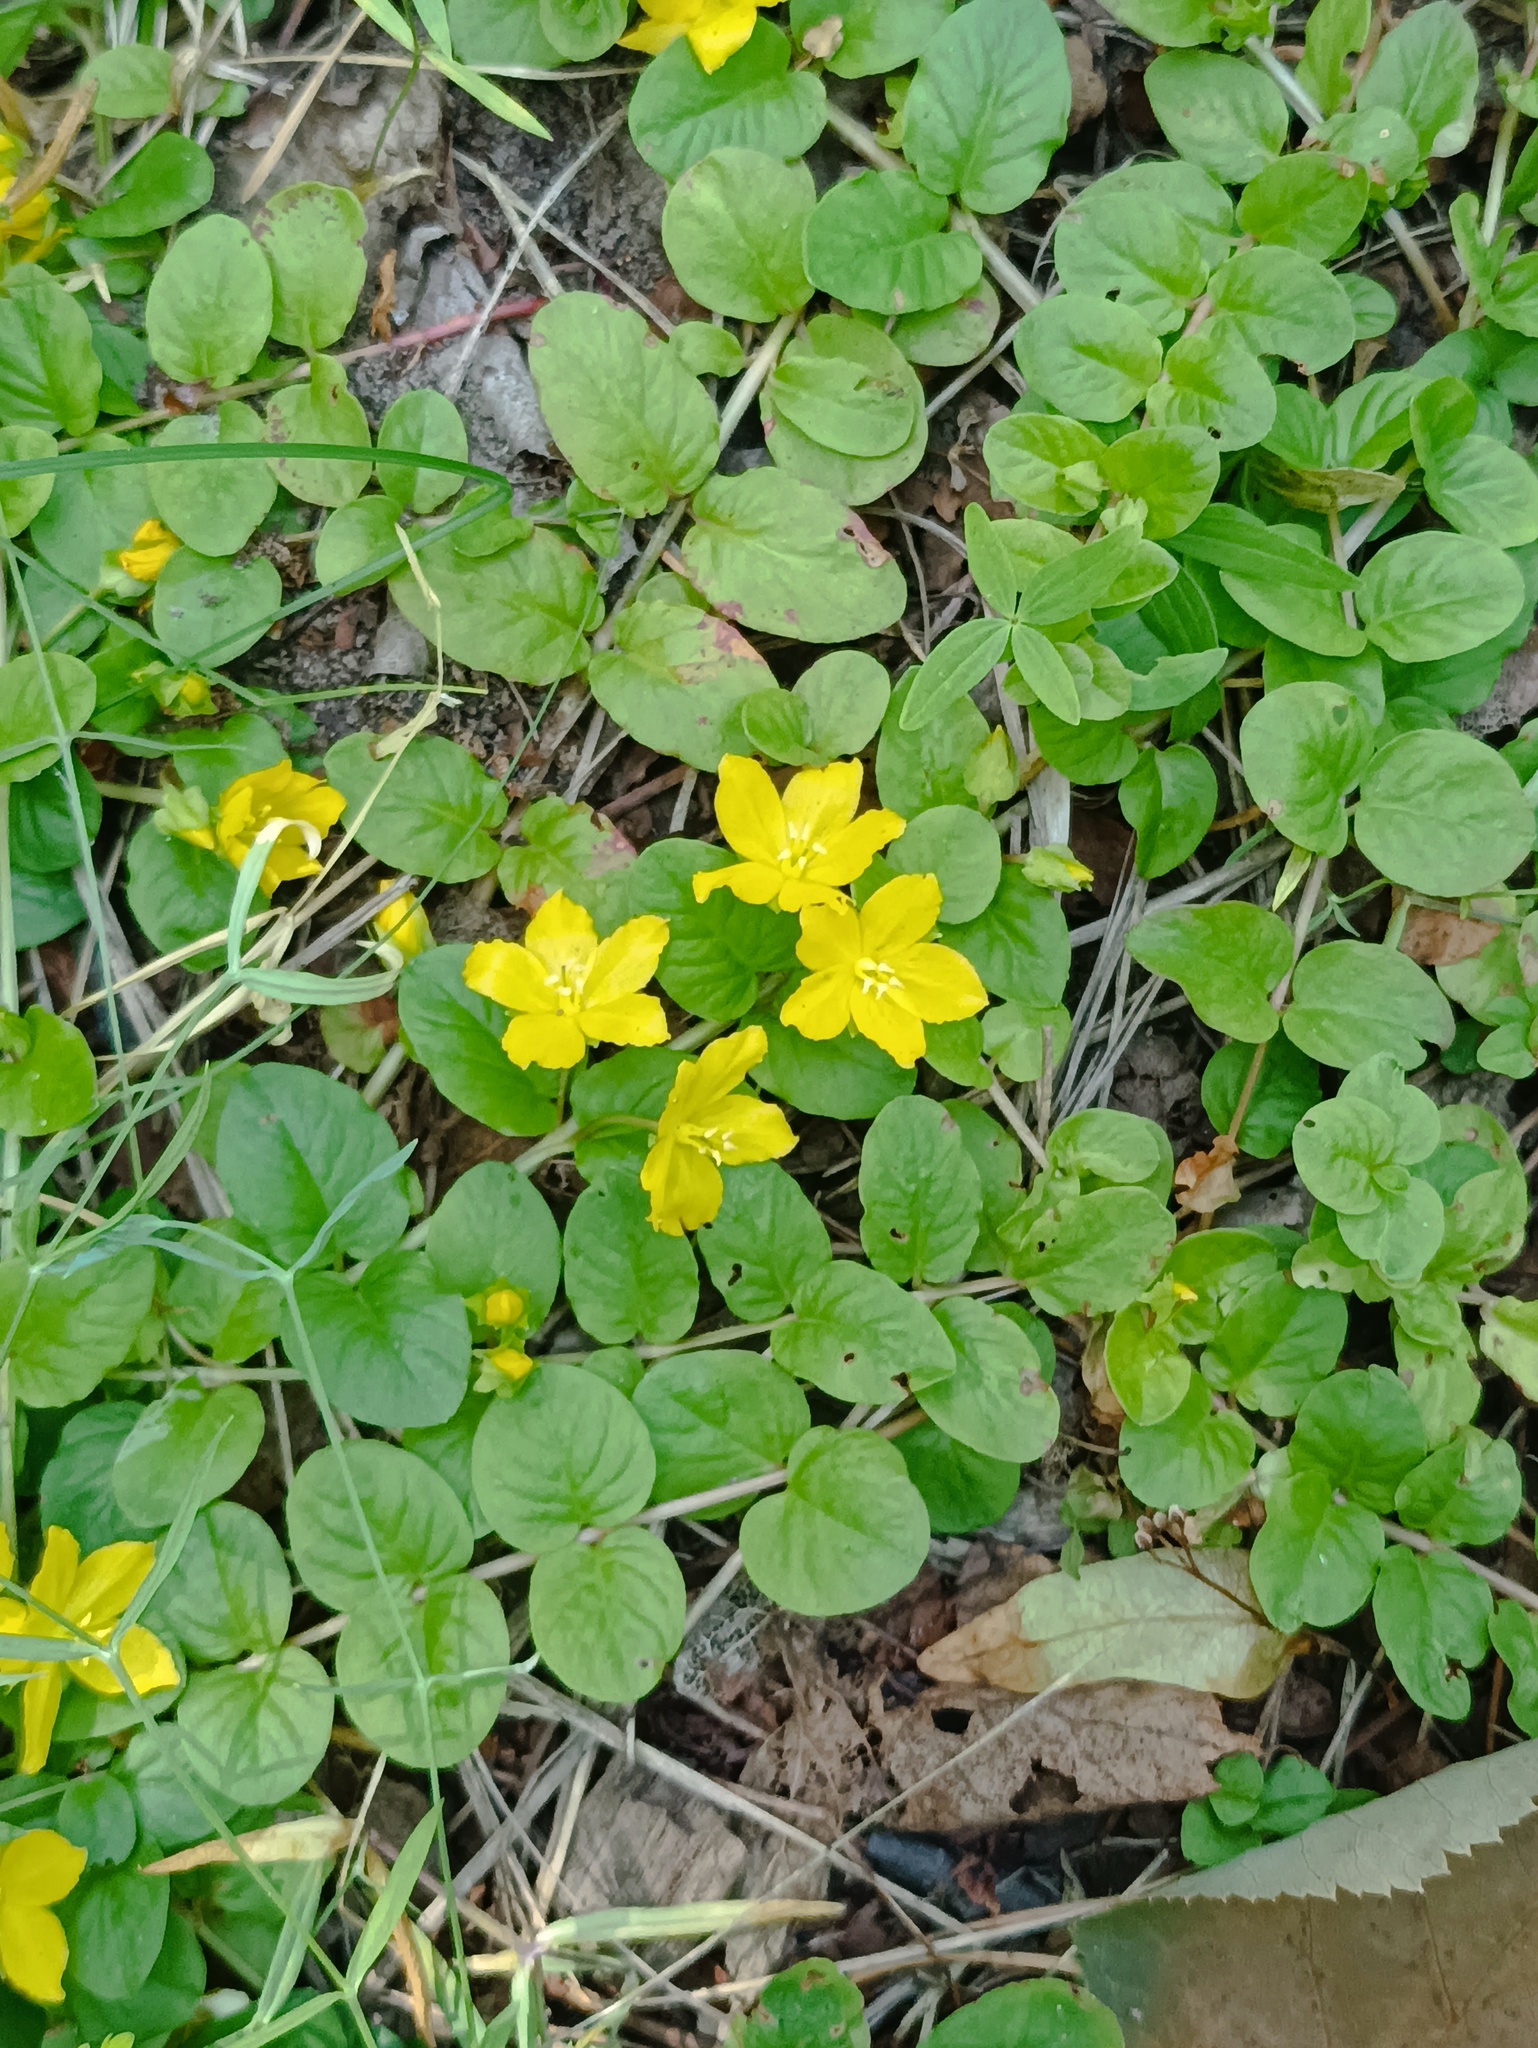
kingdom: Plantae
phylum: Tracheophyta
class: Magnoliopsida
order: Ericales
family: Primulaceae
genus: Lysimachia
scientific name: Lysimachia nummularia
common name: Moneywort
